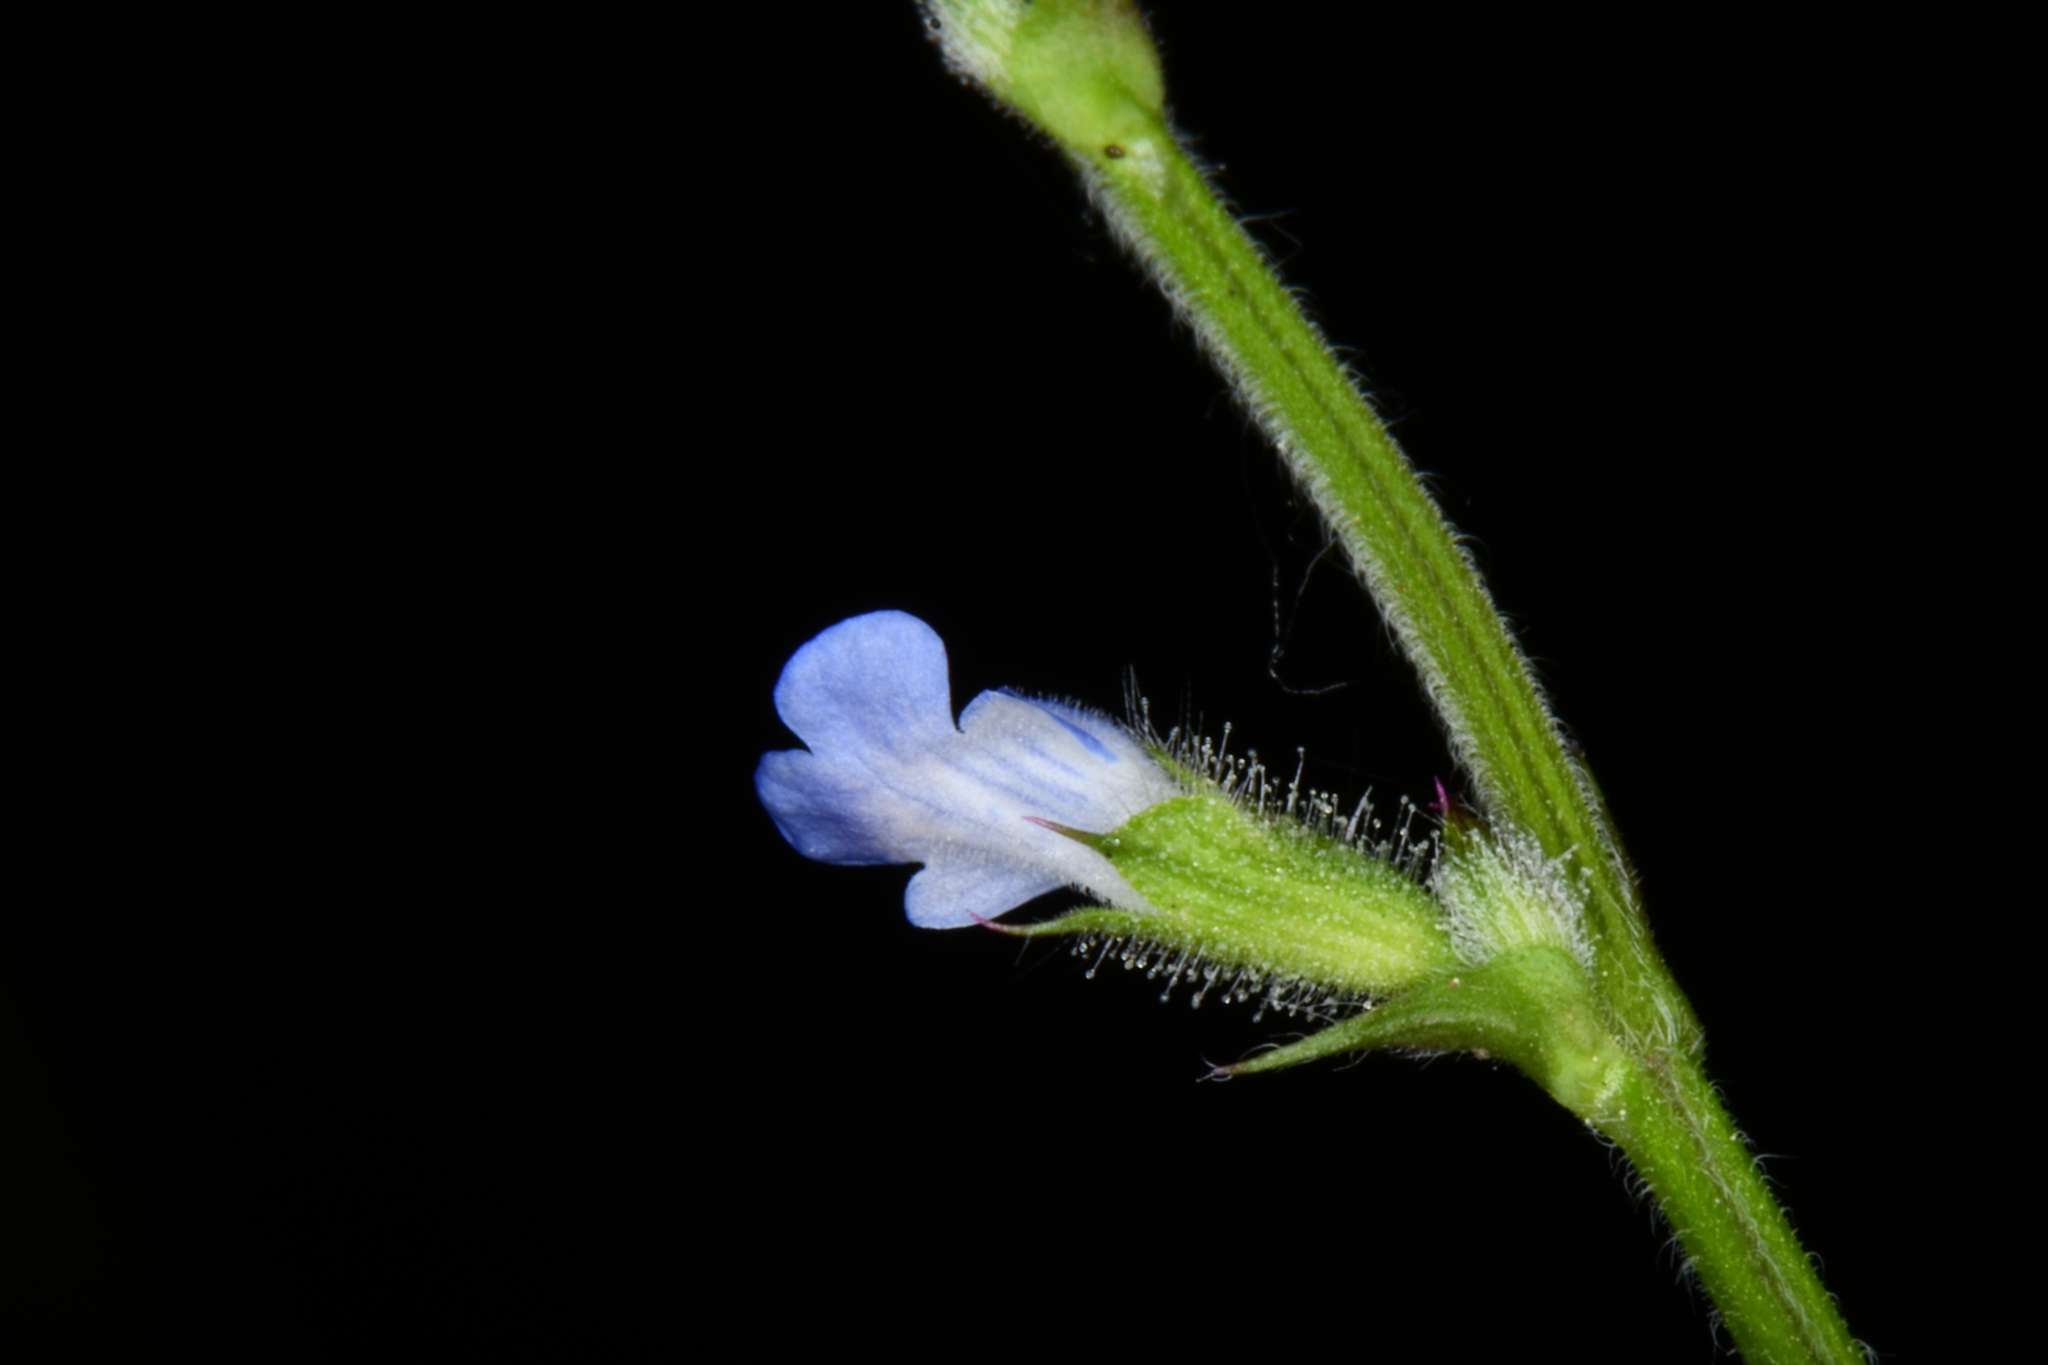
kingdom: Plantae
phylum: Tracheophyta
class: Magnoliopsida
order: Lamiales
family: Lamiaceae
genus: Salvia
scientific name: Salvia misella
